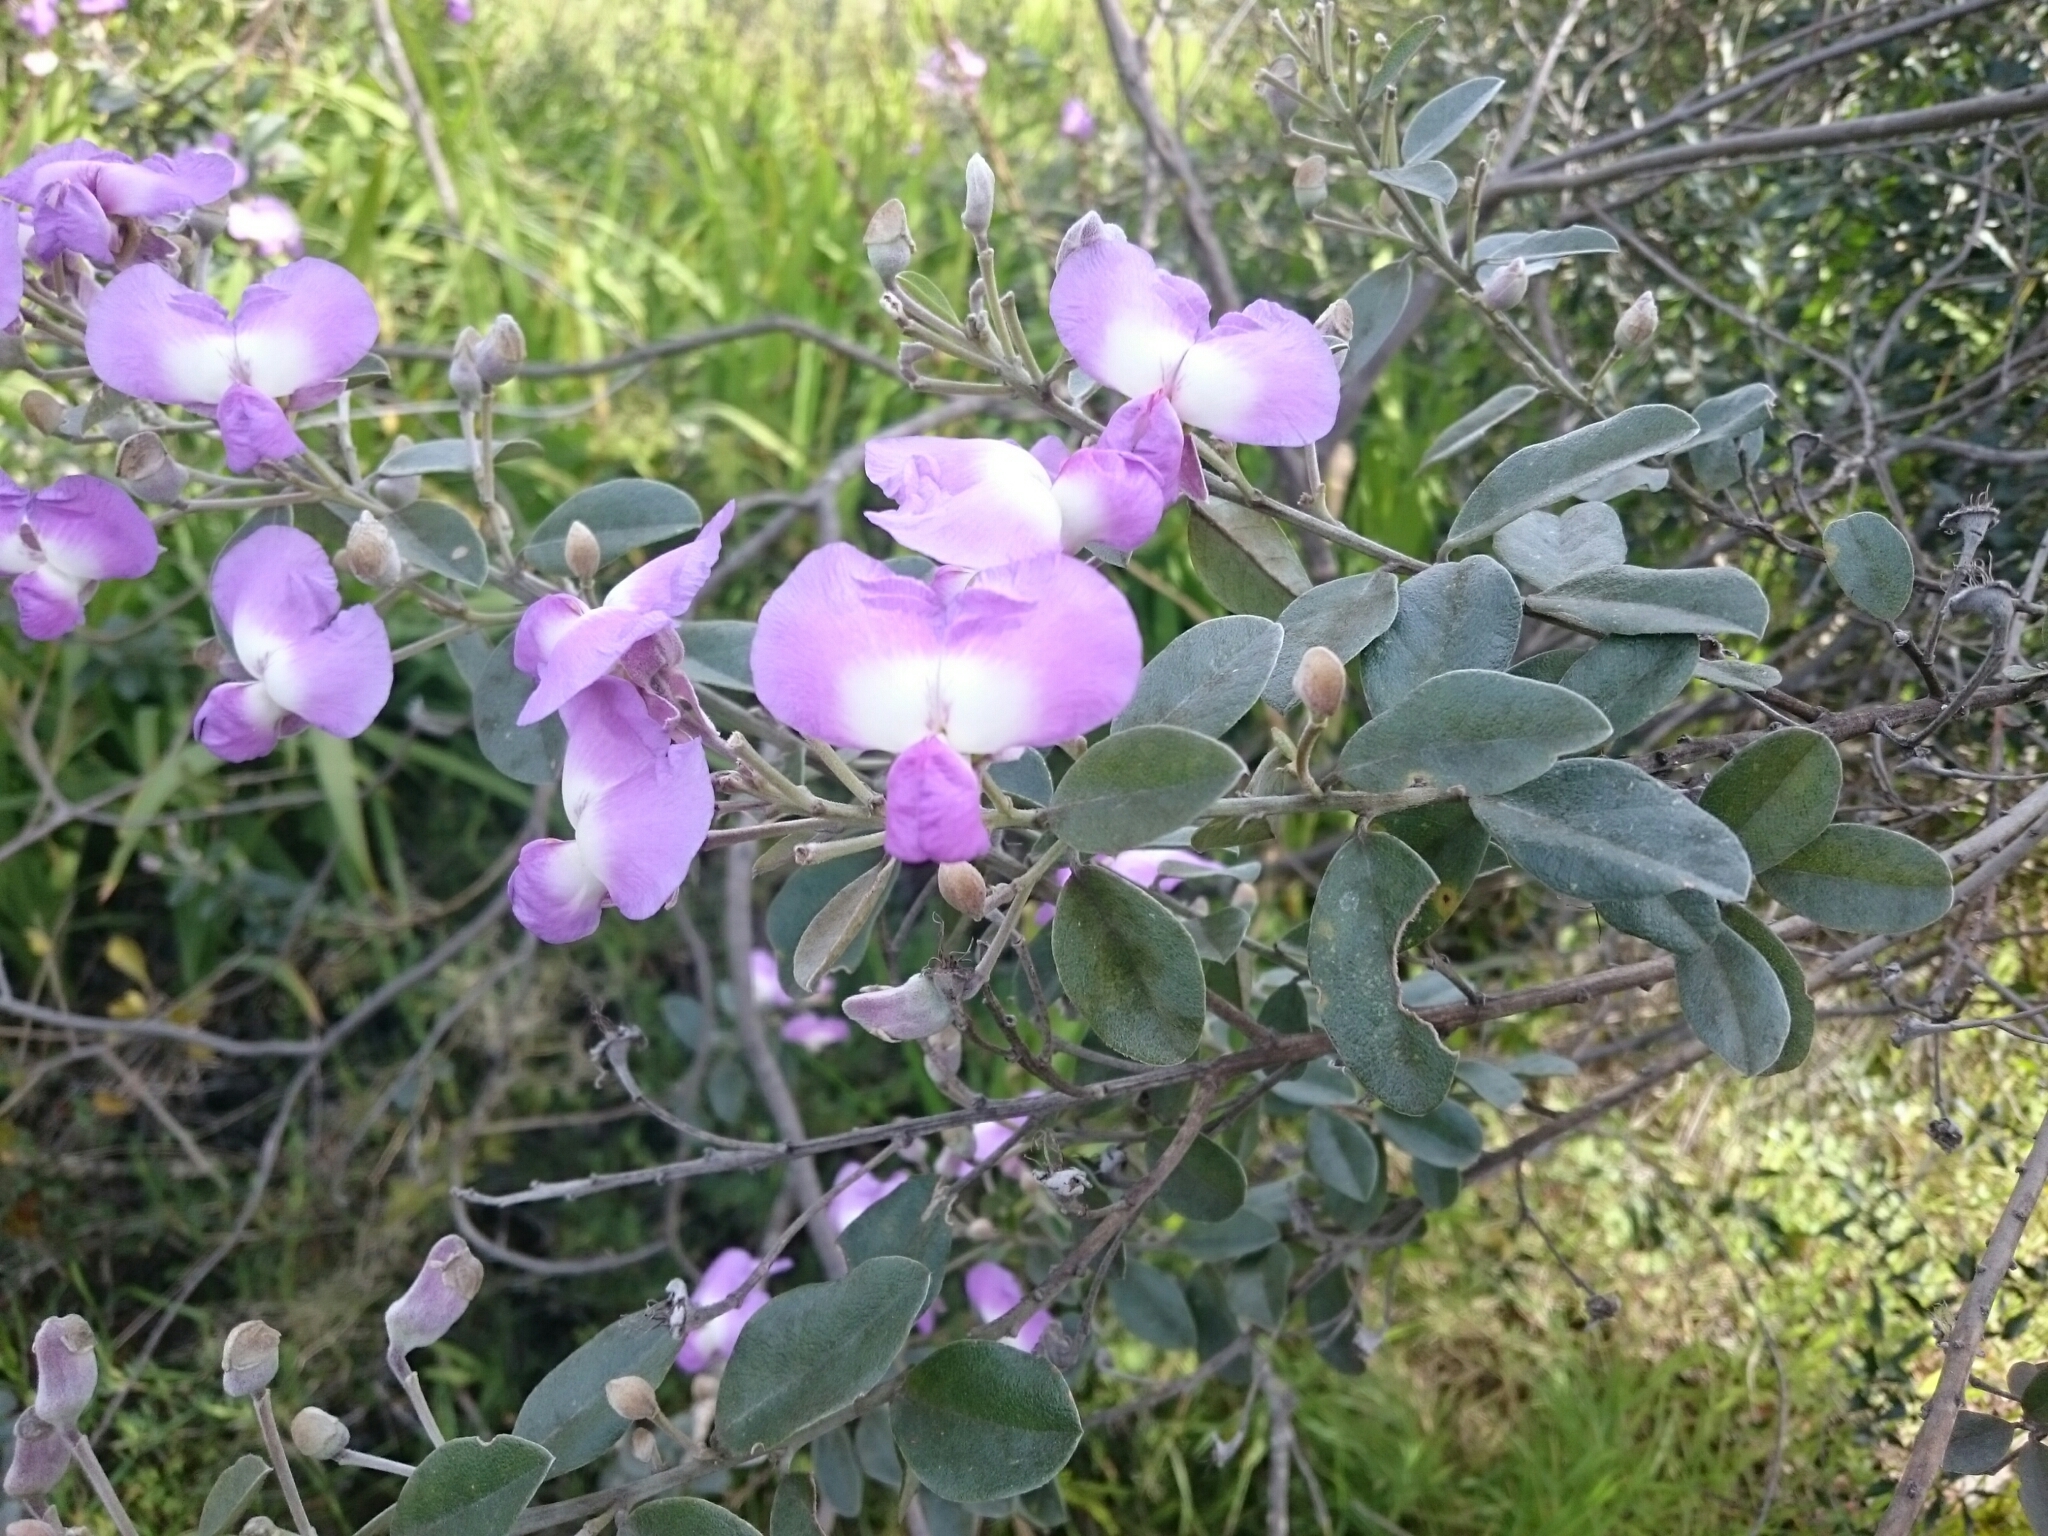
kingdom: Plantae
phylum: Tracheophyta
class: Magnoliopsida
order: Fabales
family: Fabaceae
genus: Podalyria
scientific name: Podalyria calyptrata
